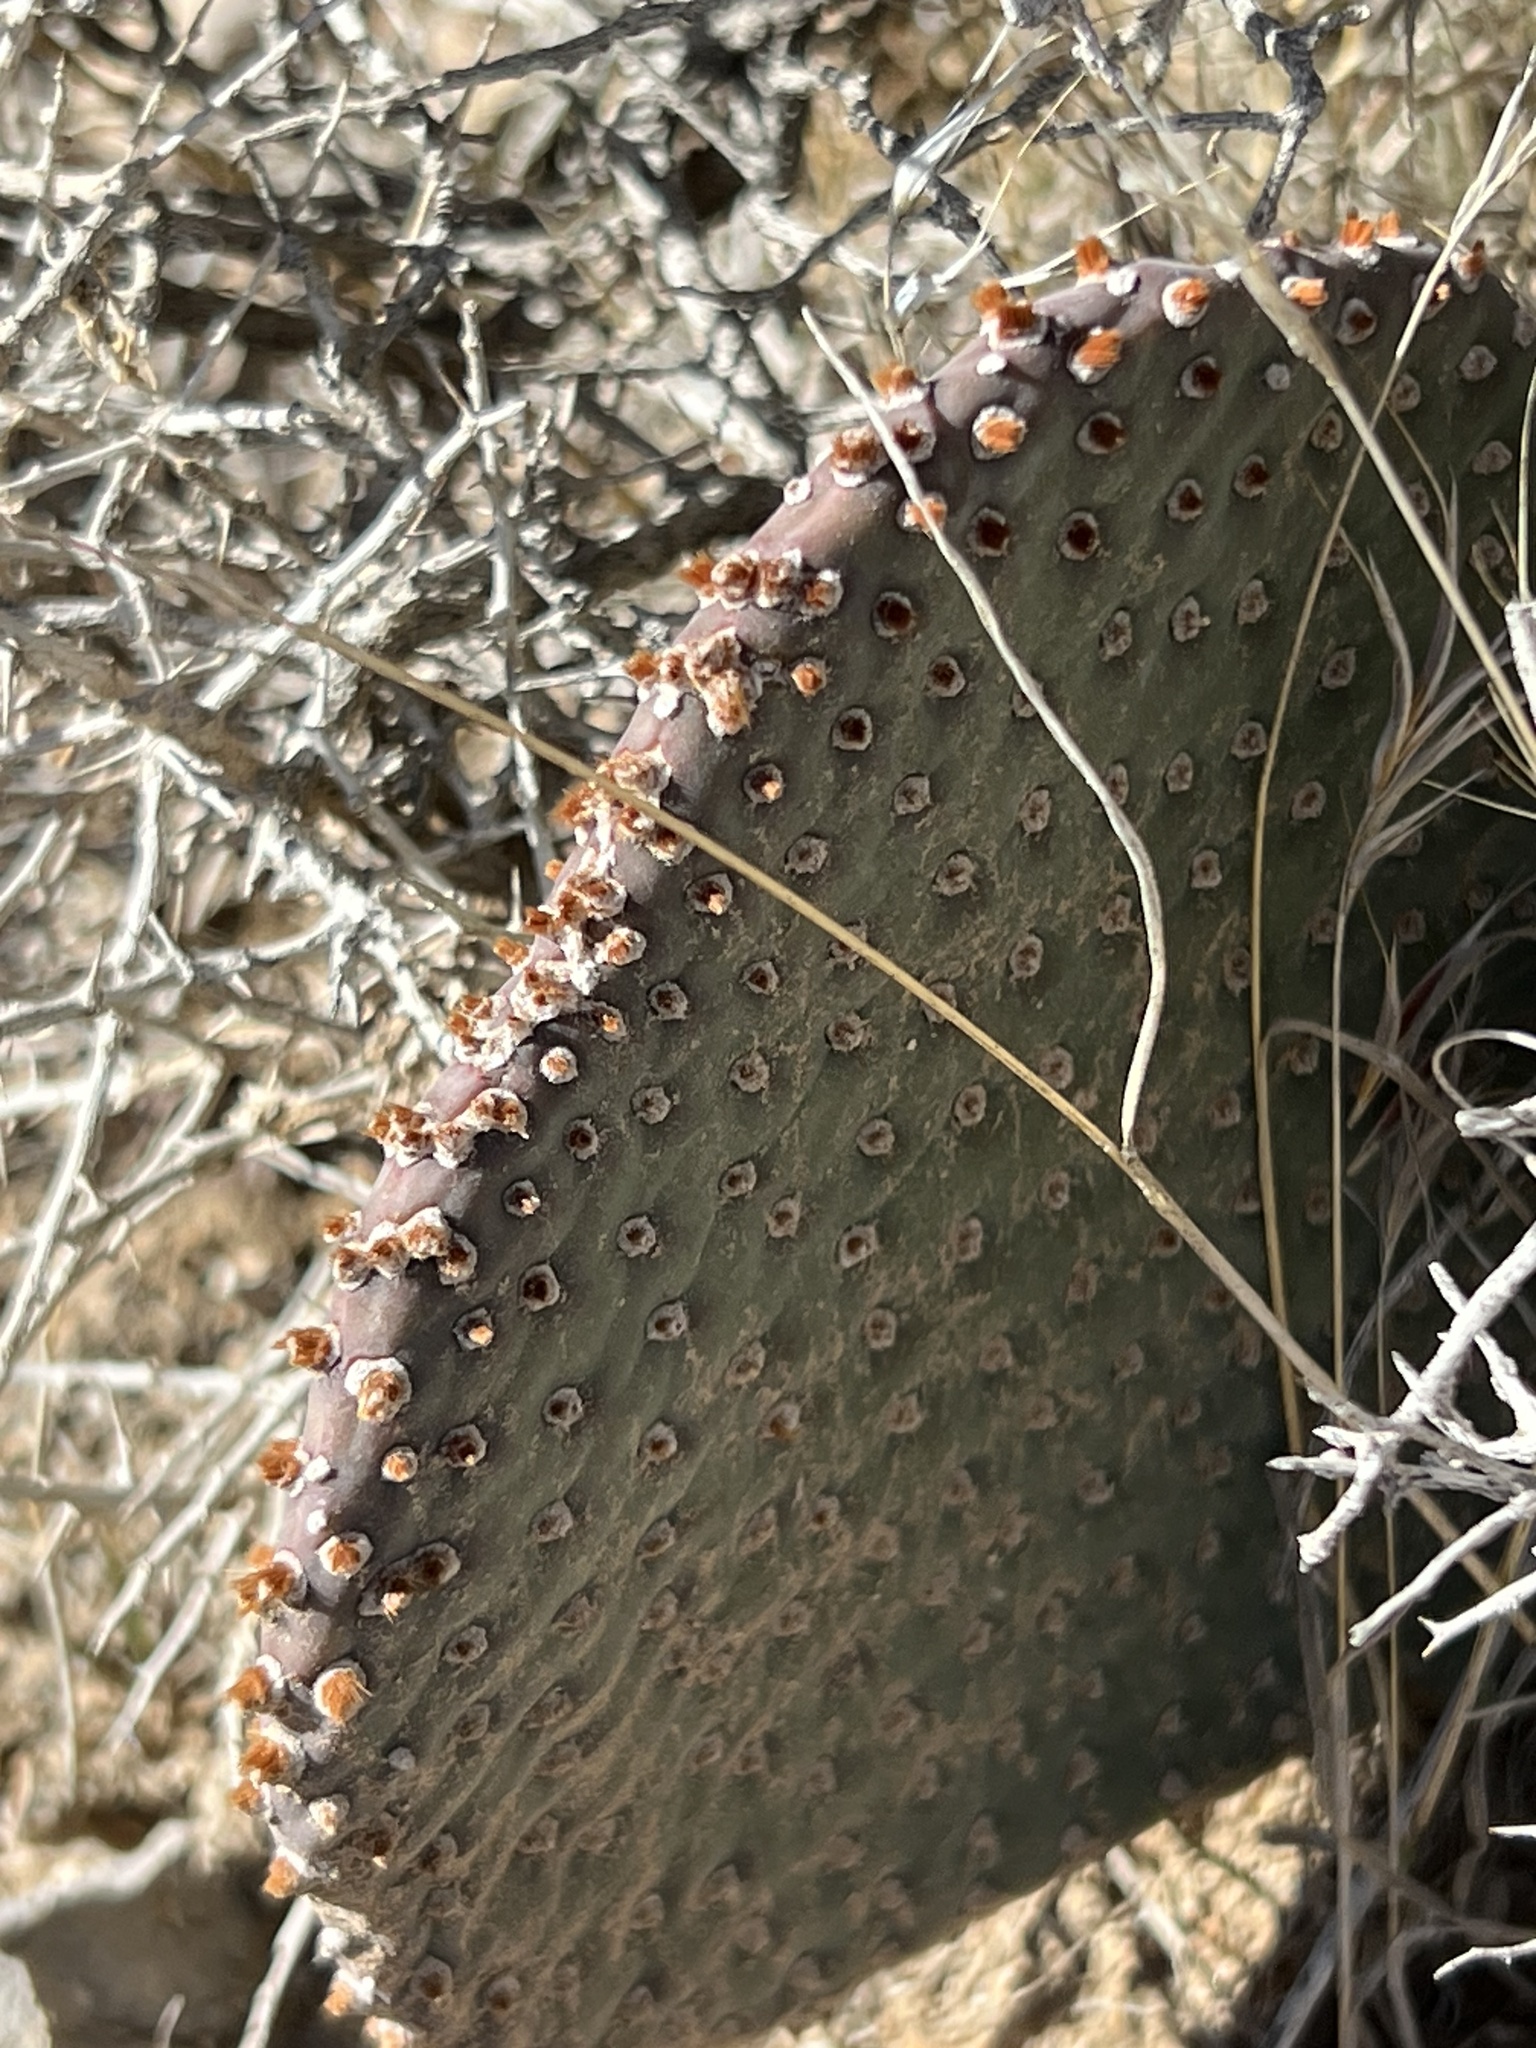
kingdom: Plantae
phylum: Tracheophyta
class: Magnoliopsida
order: Caryophyllales
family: Cactaceae
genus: Opuntia
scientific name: Opuntia basilaris
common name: Beavertail prickly-pear
